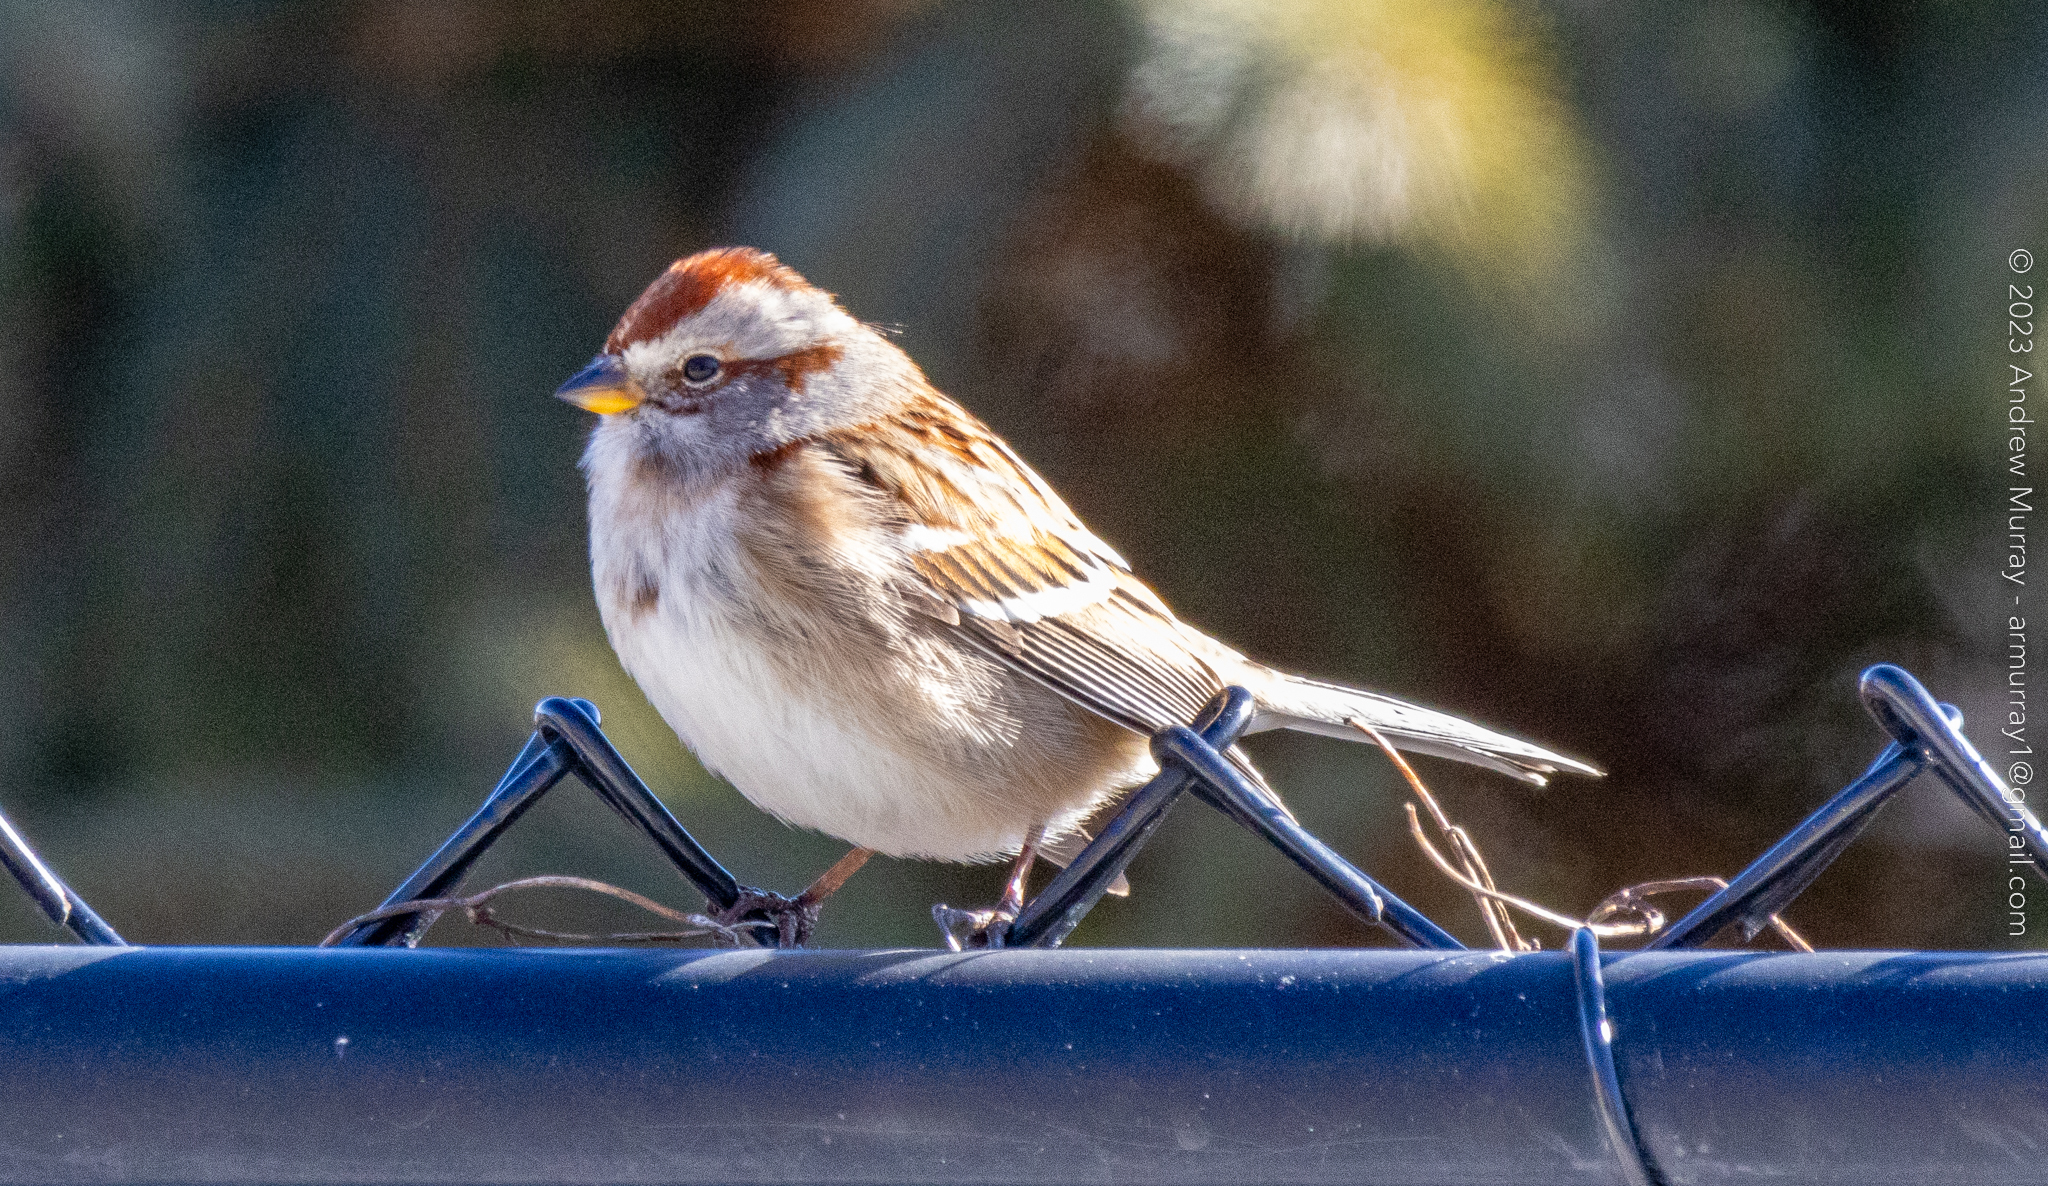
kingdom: Animalia
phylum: Chordata
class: Aves
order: Passeriformes
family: Passerellidae
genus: Spizelloides
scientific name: Spizelloides arborea
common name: American tree sparrow
